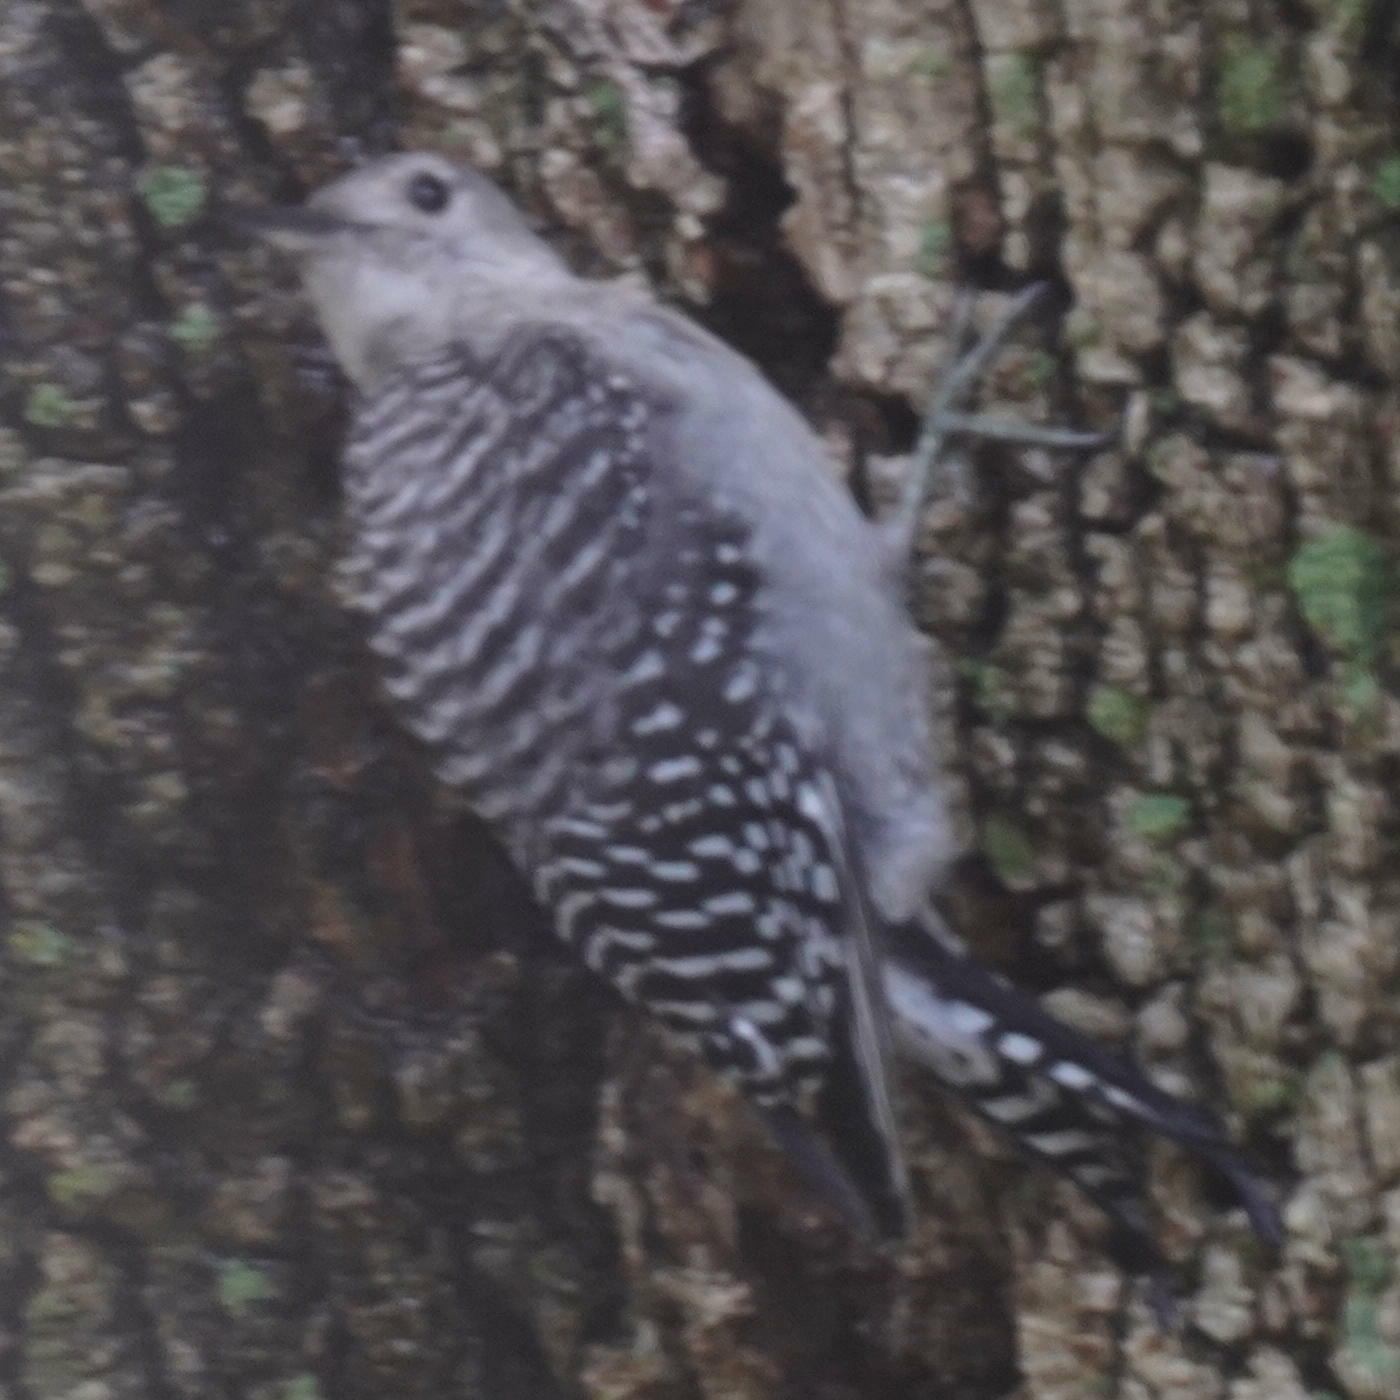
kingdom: Animalia
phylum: Chordata
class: Aves
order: Piciformes
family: Picidae
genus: Melanerpes
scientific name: Melanerpes carolinus
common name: Red-bellied woodpecker
